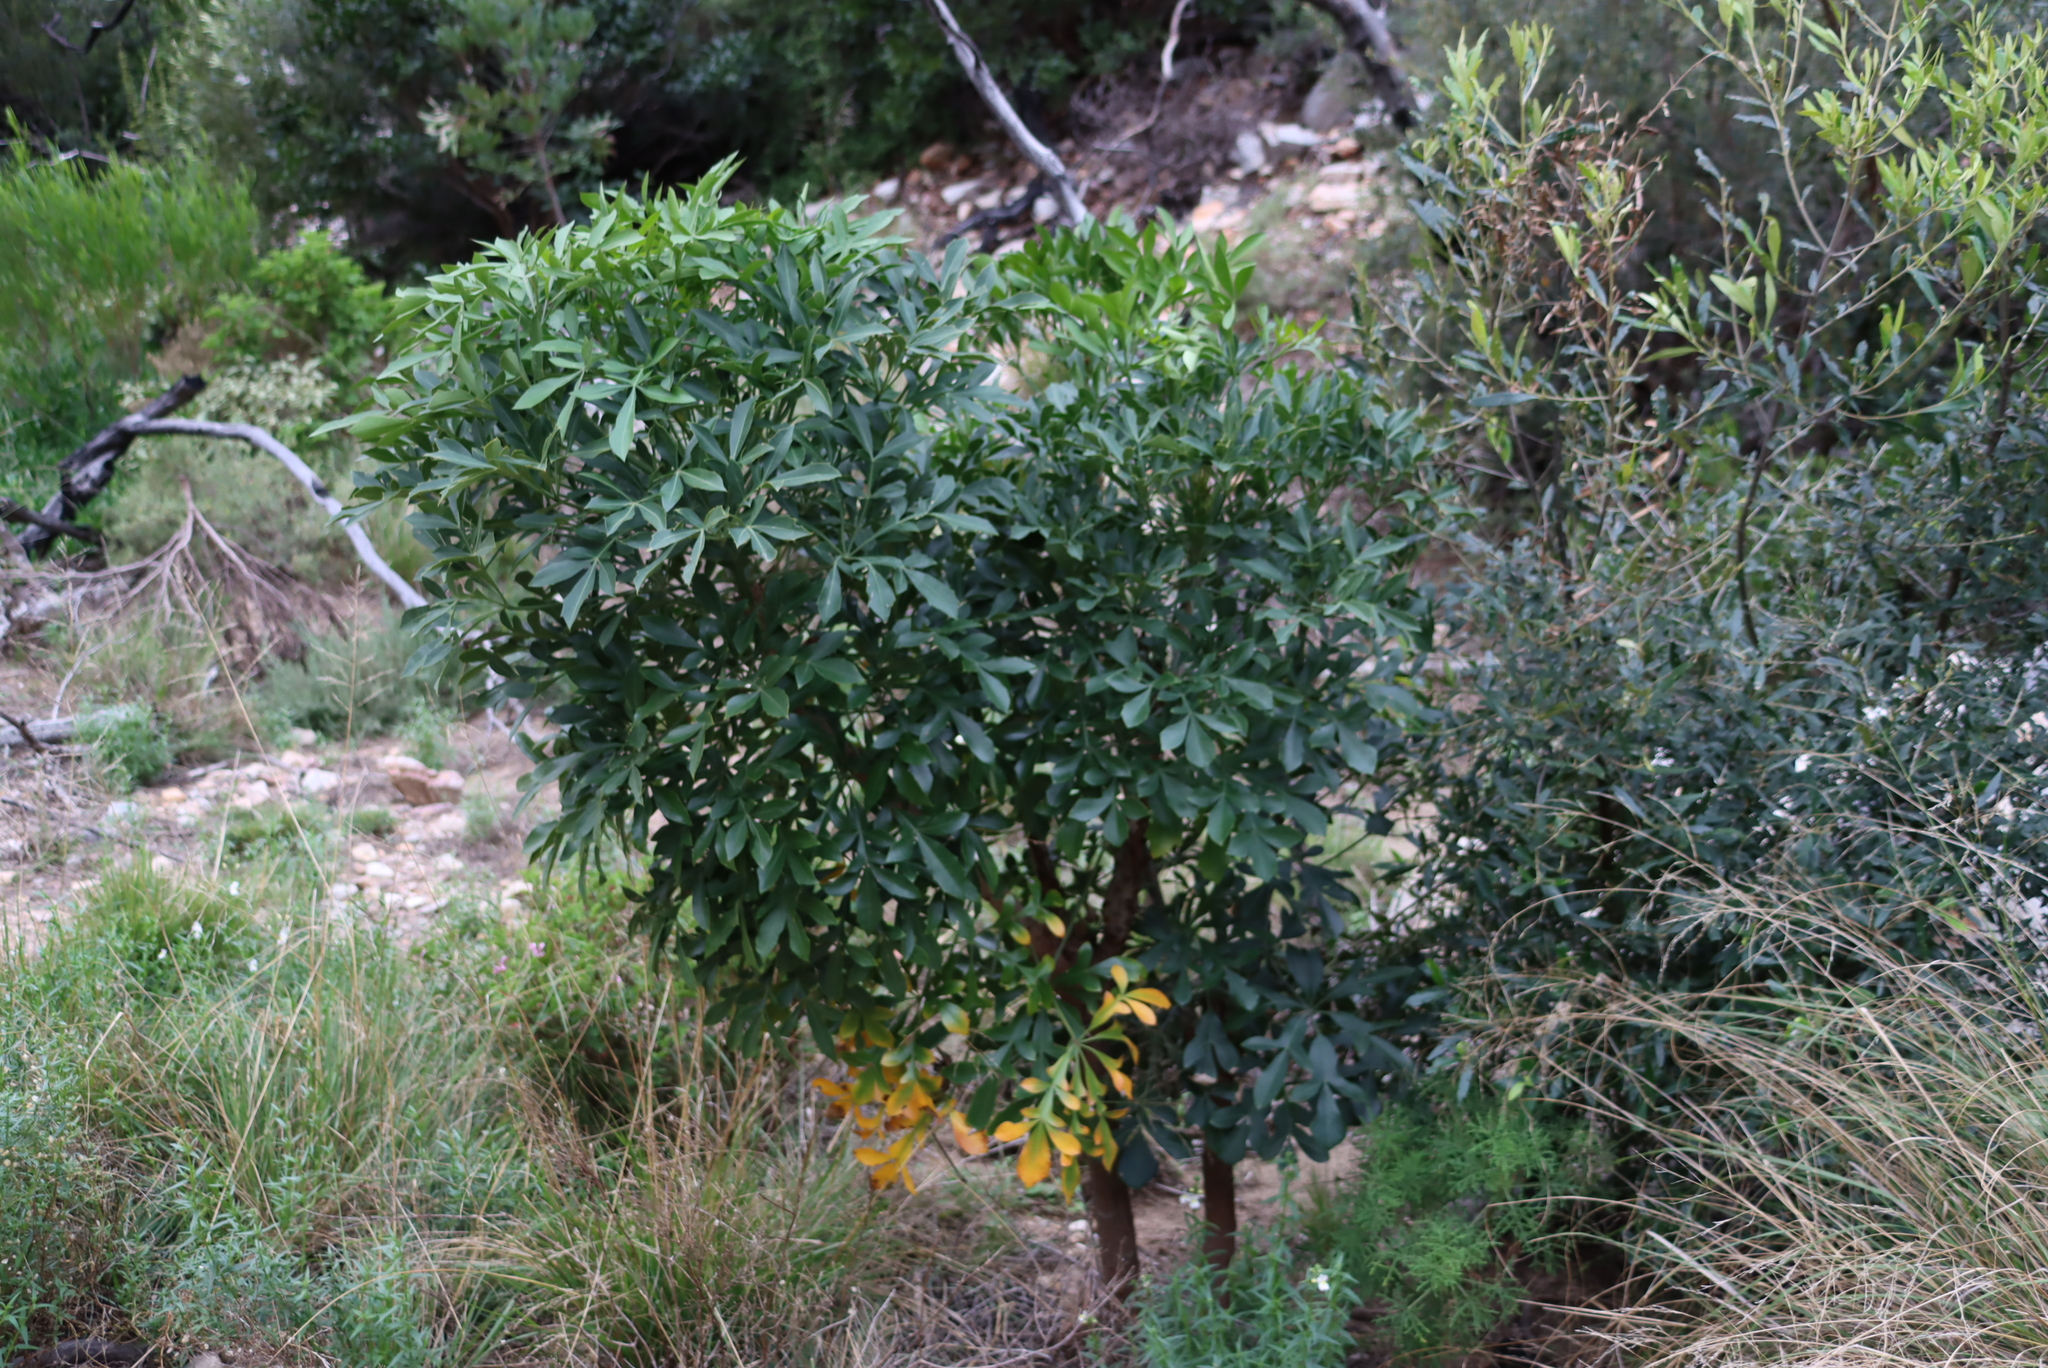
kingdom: Plantae
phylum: Tracheophyta
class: Magnoliopsida
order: Apiales
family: Araliaceae
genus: Cussonia
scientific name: Cussonia spicata
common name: Common cabbagetree
